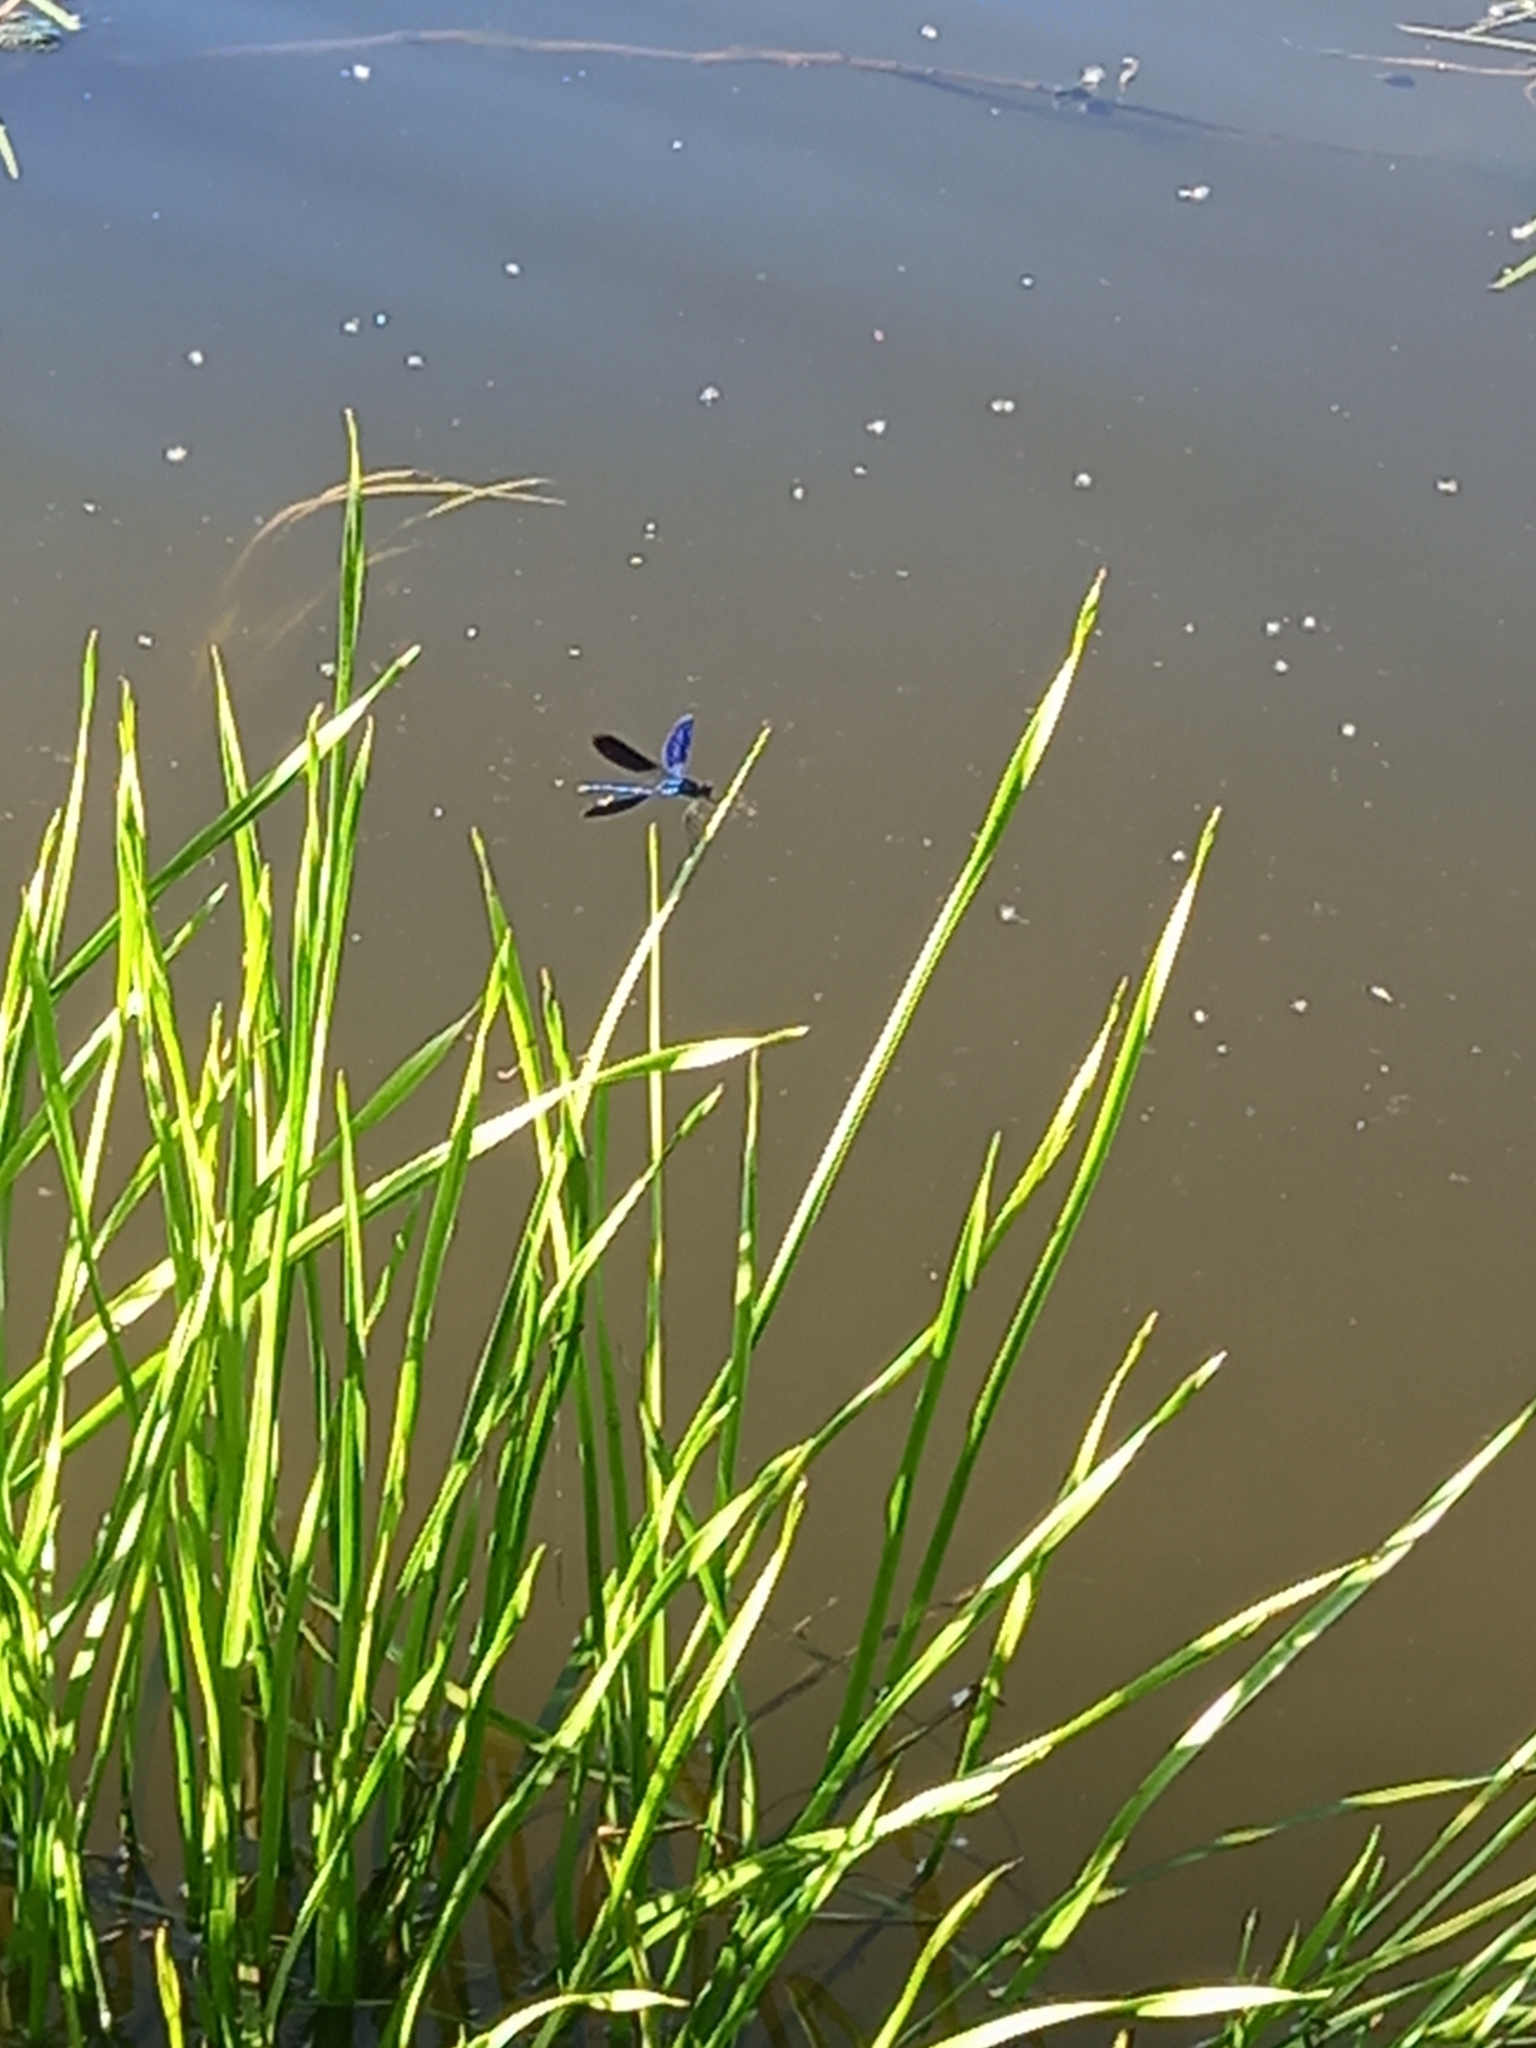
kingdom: Animalia
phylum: Arthropoda
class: Insecta
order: Odonata
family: Calopterygidae
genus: Calopteryx
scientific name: Calopteryx splendens
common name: Banded demoiselle
